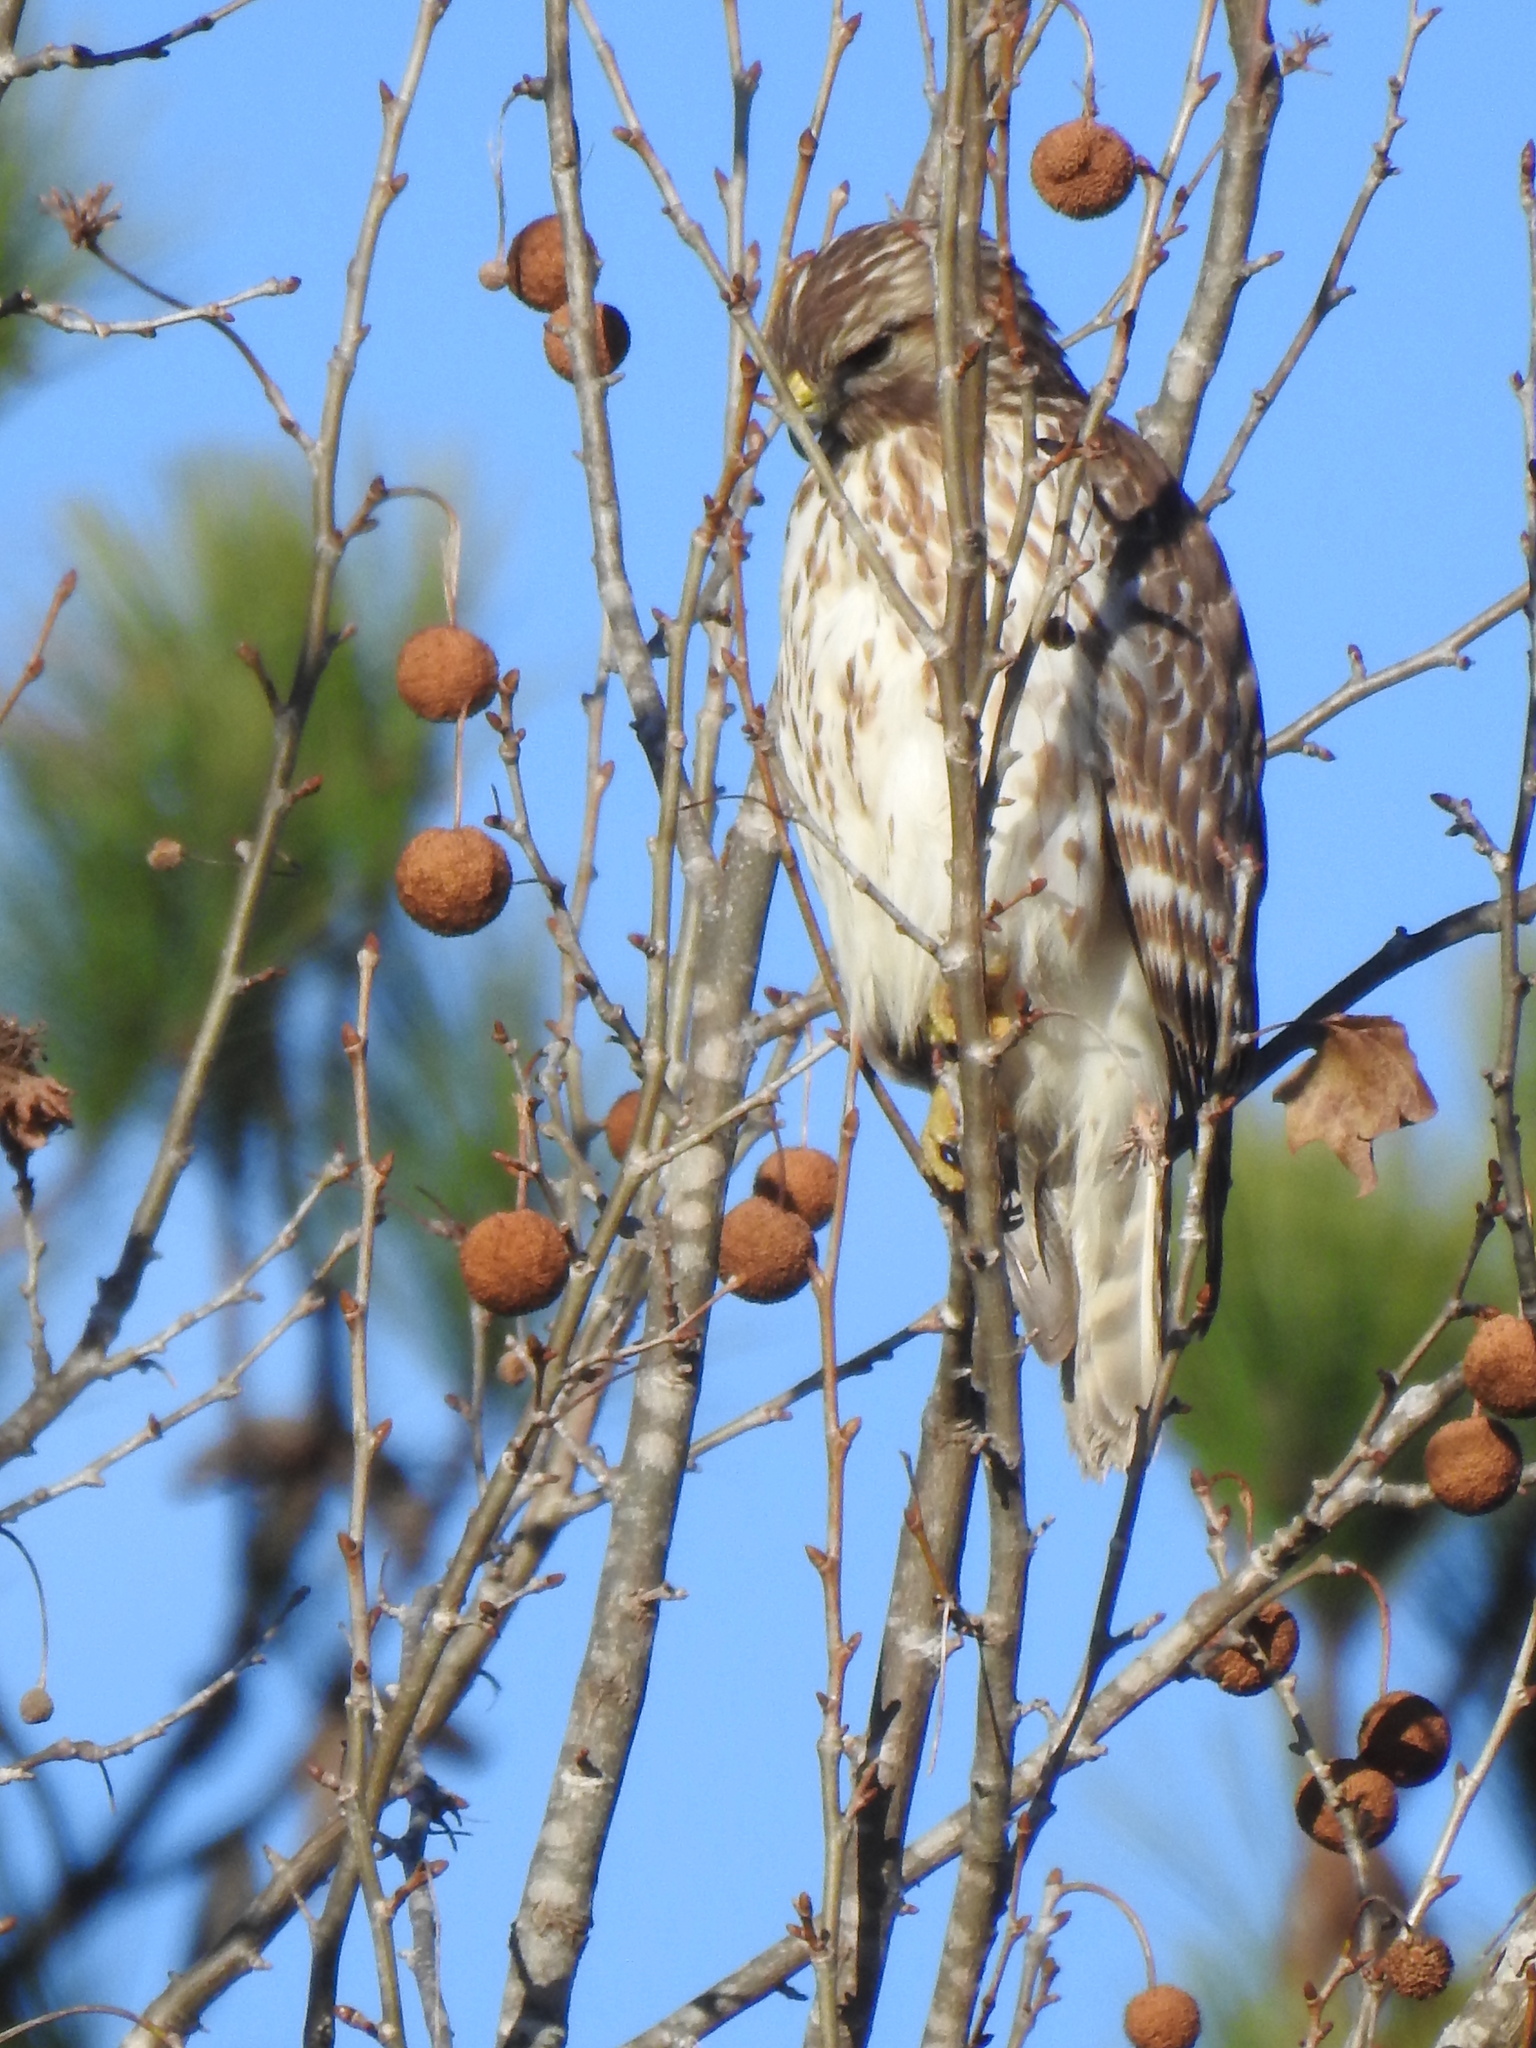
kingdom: Animalia
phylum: Chordata
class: Aves
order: Accipitriformes
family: Accipitridae
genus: Buteo
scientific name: Buteo lineatus
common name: Red-shouldered hawk
